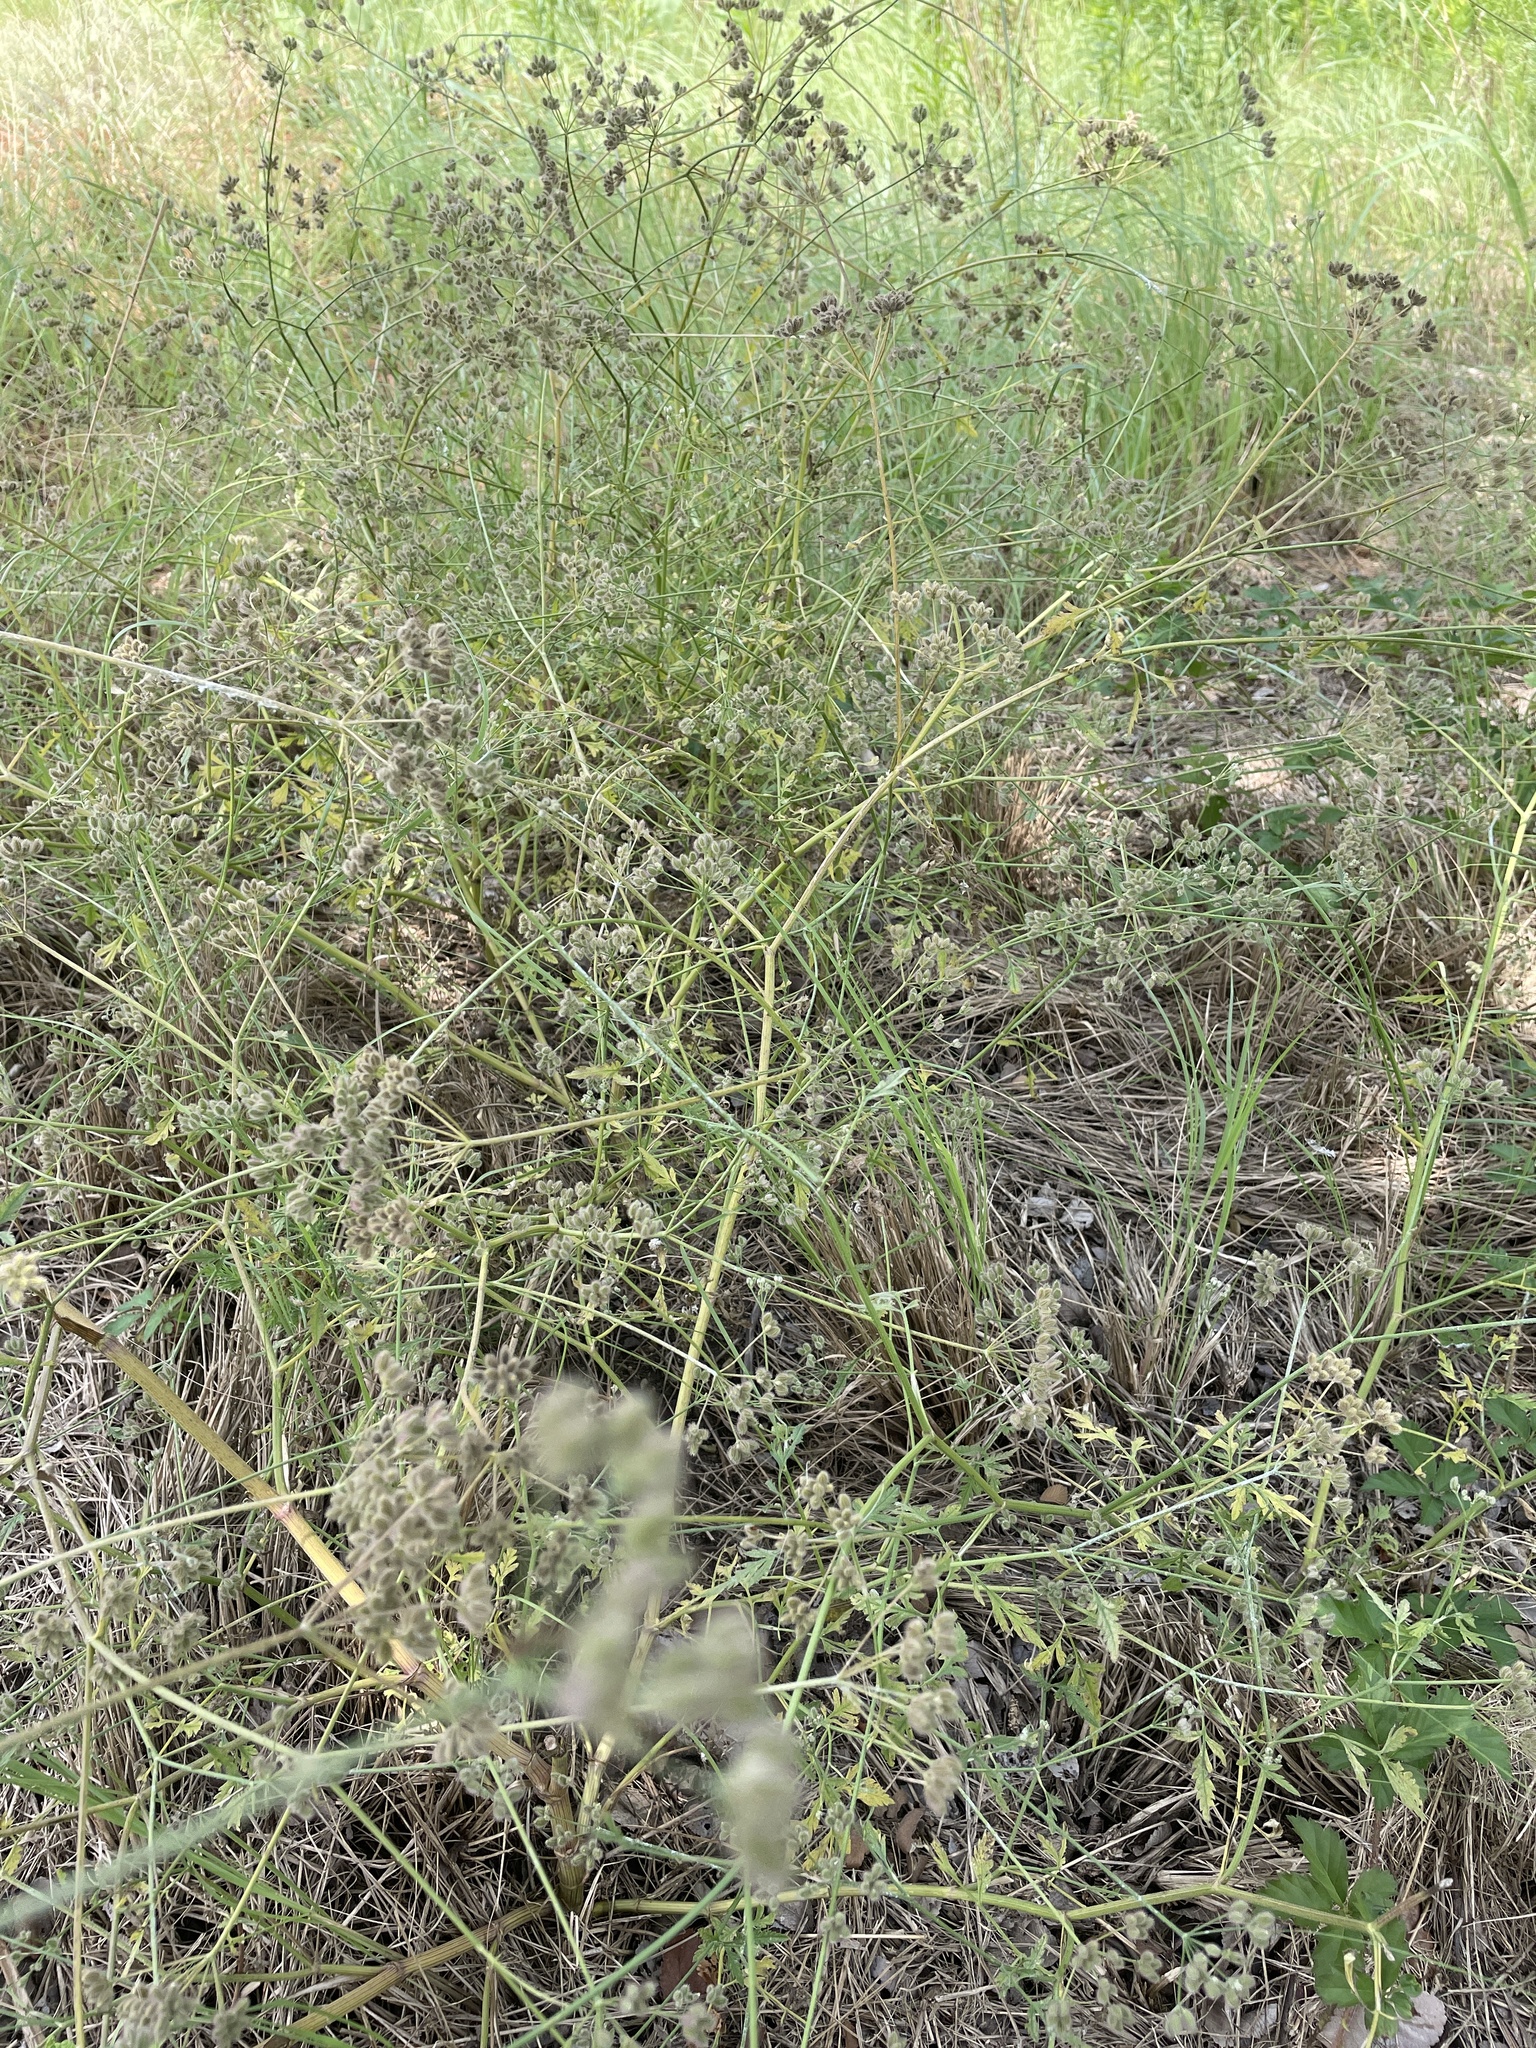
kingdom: Plantae
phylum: Tracheophyta
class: Magnoliopsida
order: Apiales
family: Apiaceae
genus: Torilis
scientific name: Torilis arvensis
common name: Spreading hedge-parsley
